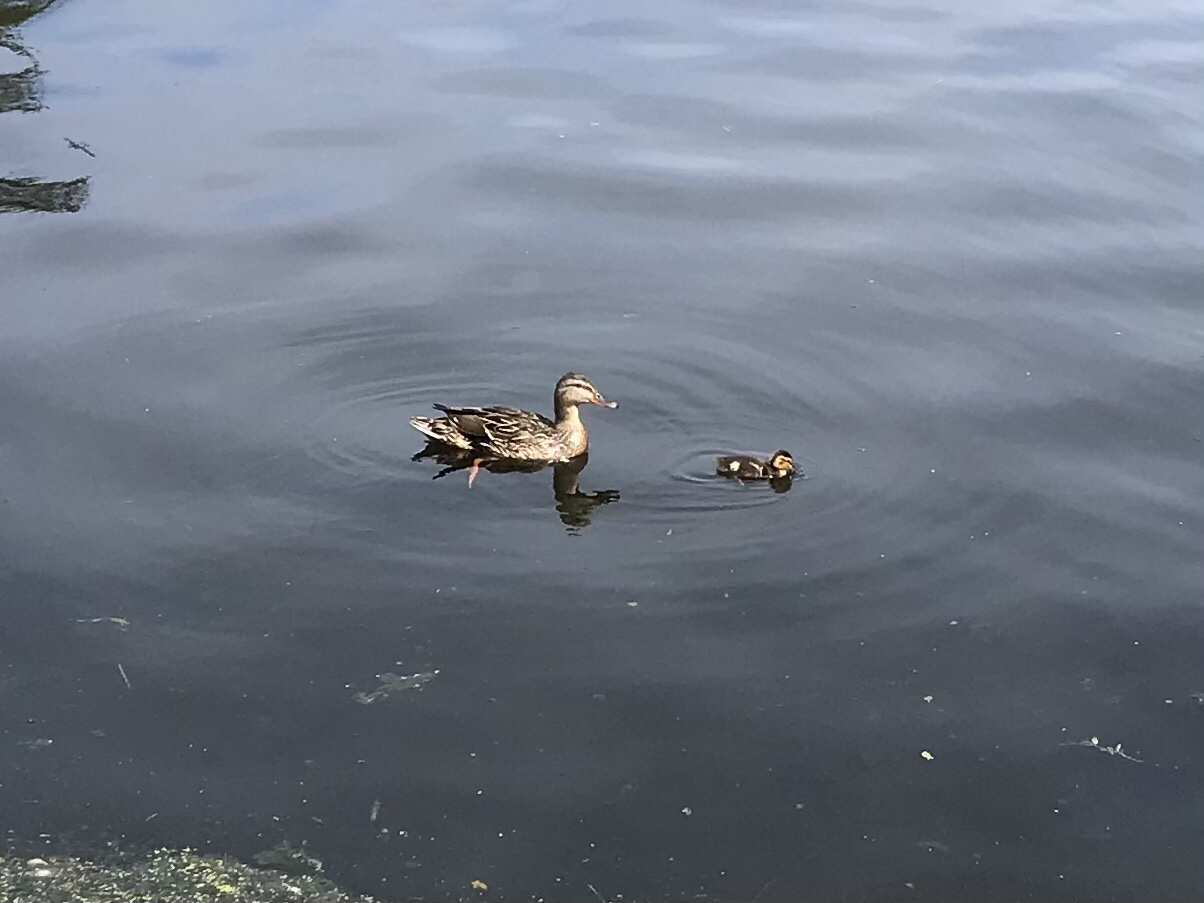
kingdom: Animalia
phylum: Chordata
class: Aves
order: Anseriformes
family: Anatidae
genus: Anas
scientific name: Anas platyrhynchos
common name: Mallard
